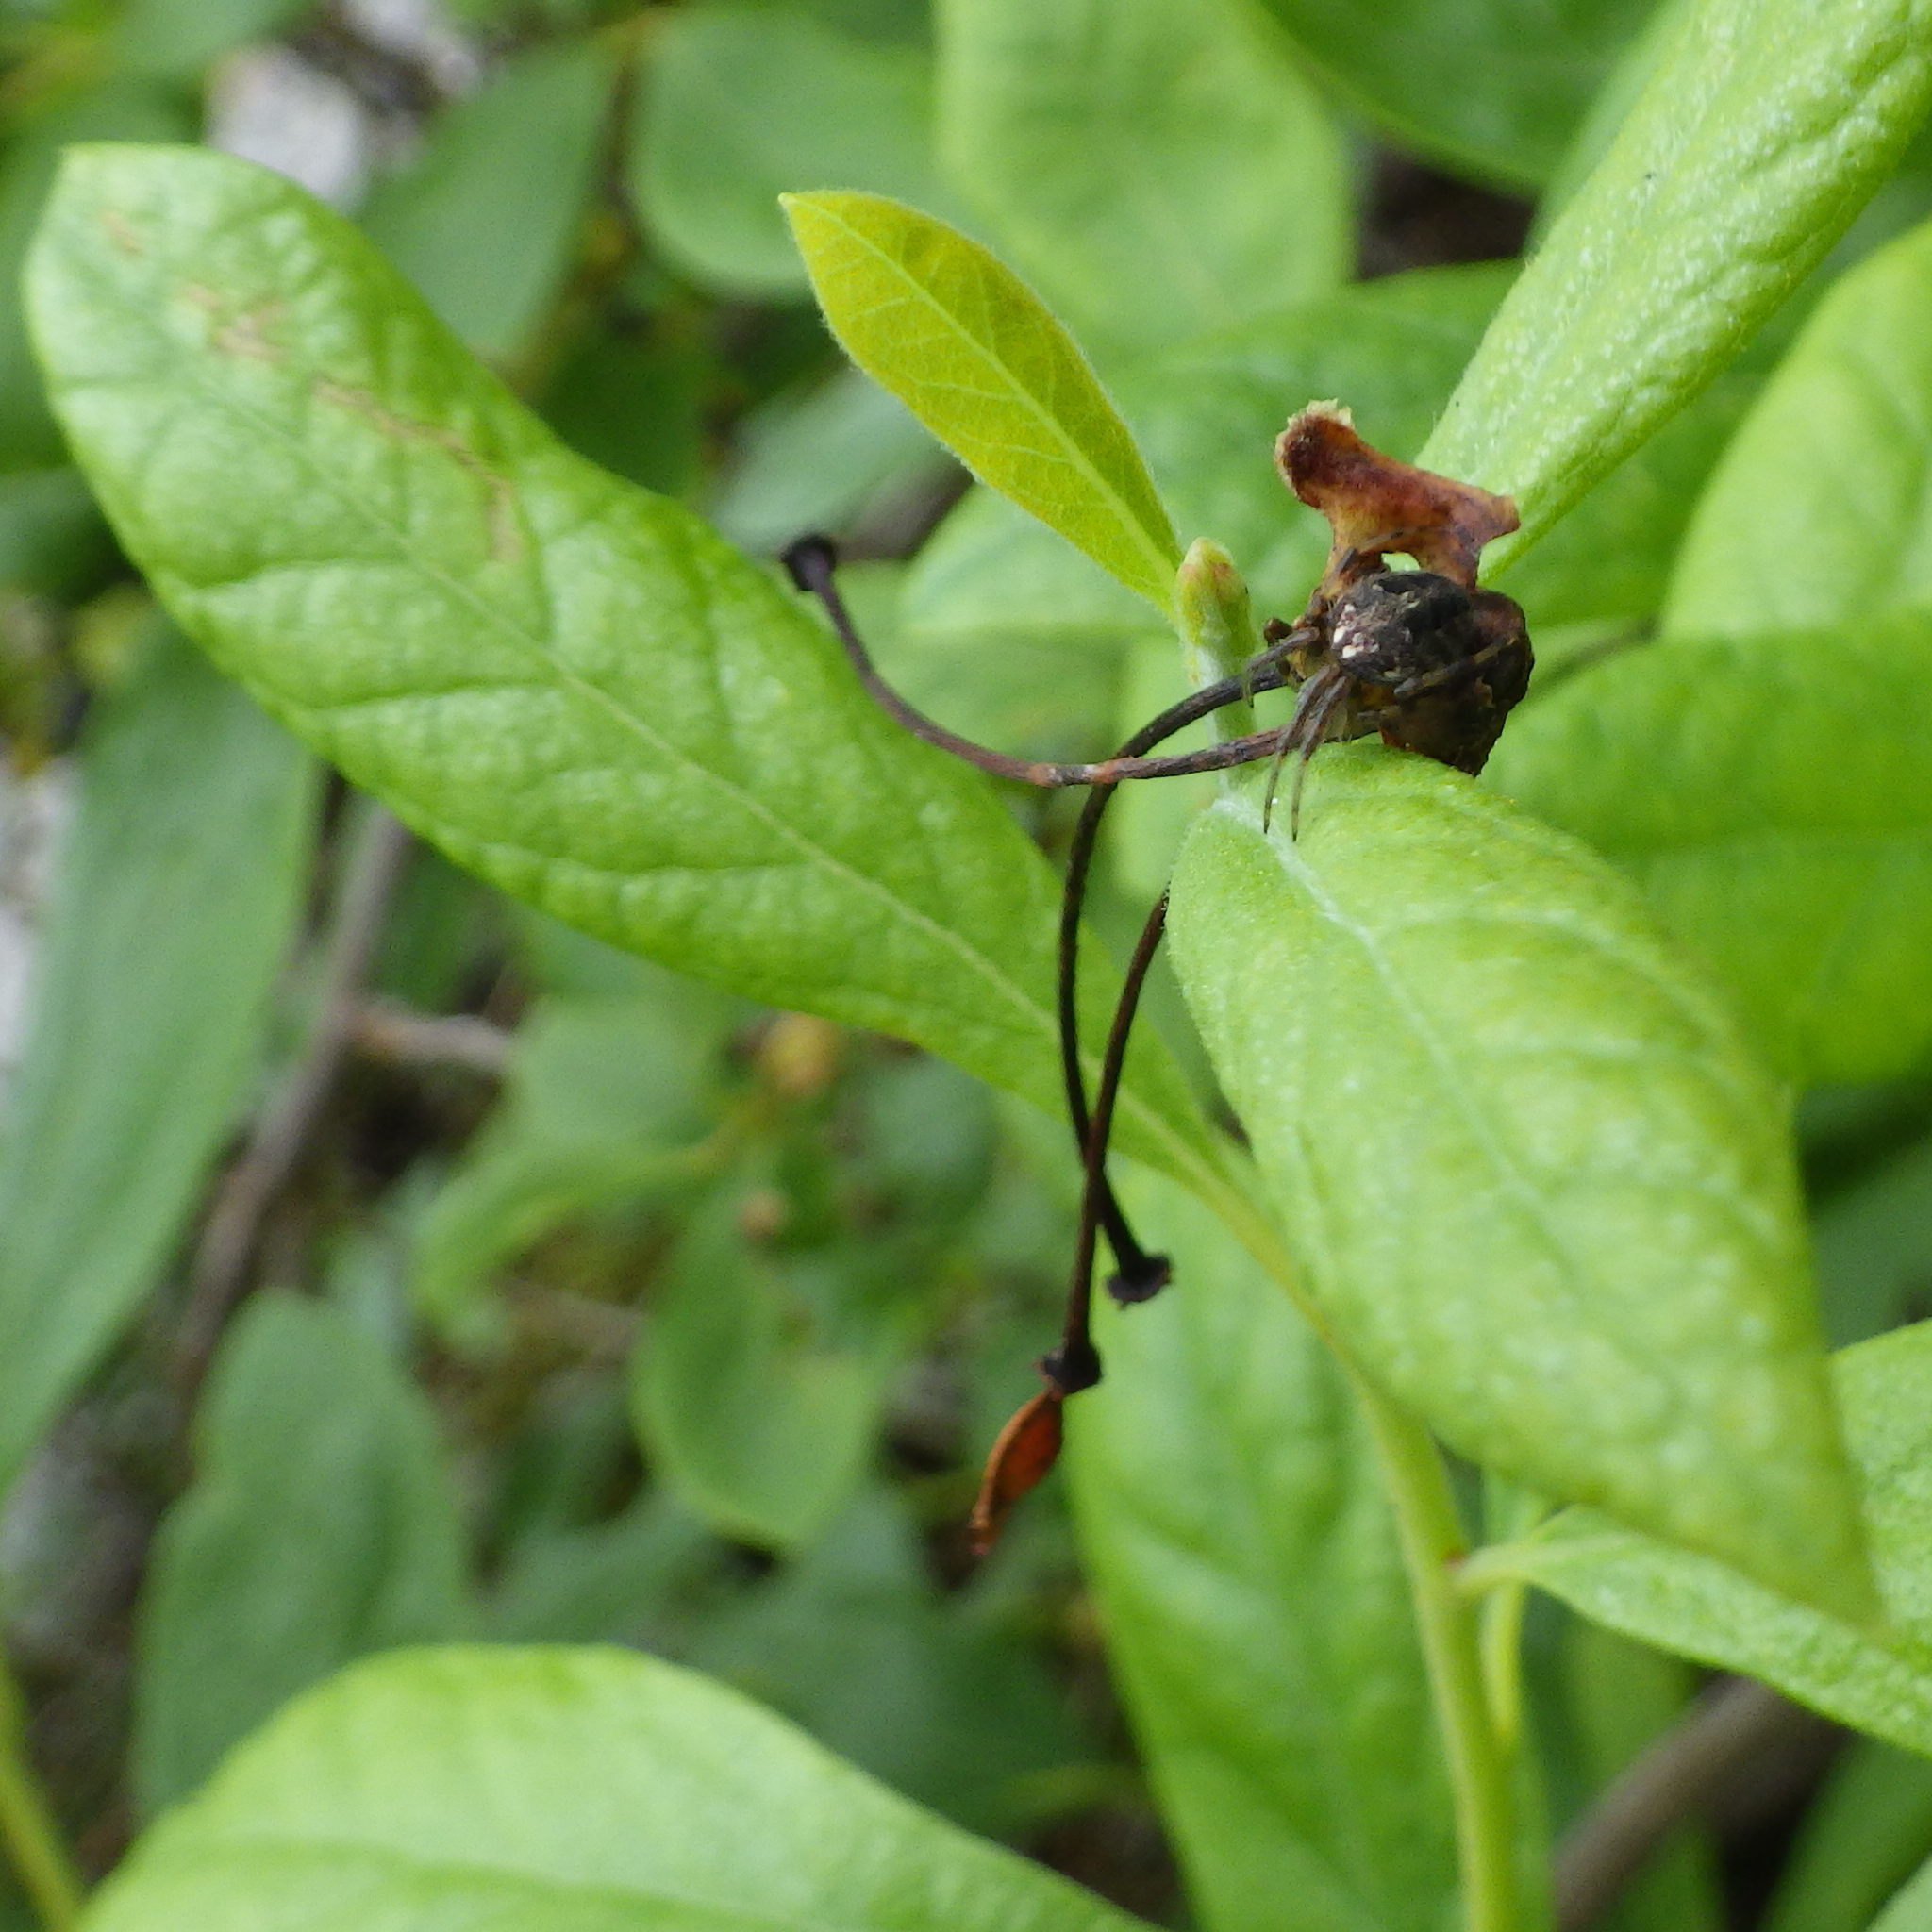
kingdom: Animalia
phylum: Arthropoda
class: Arachnida
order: Araneae
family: Araneidae
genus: Neoscona
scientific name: Neoscona arabesca
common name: Orb weavers
